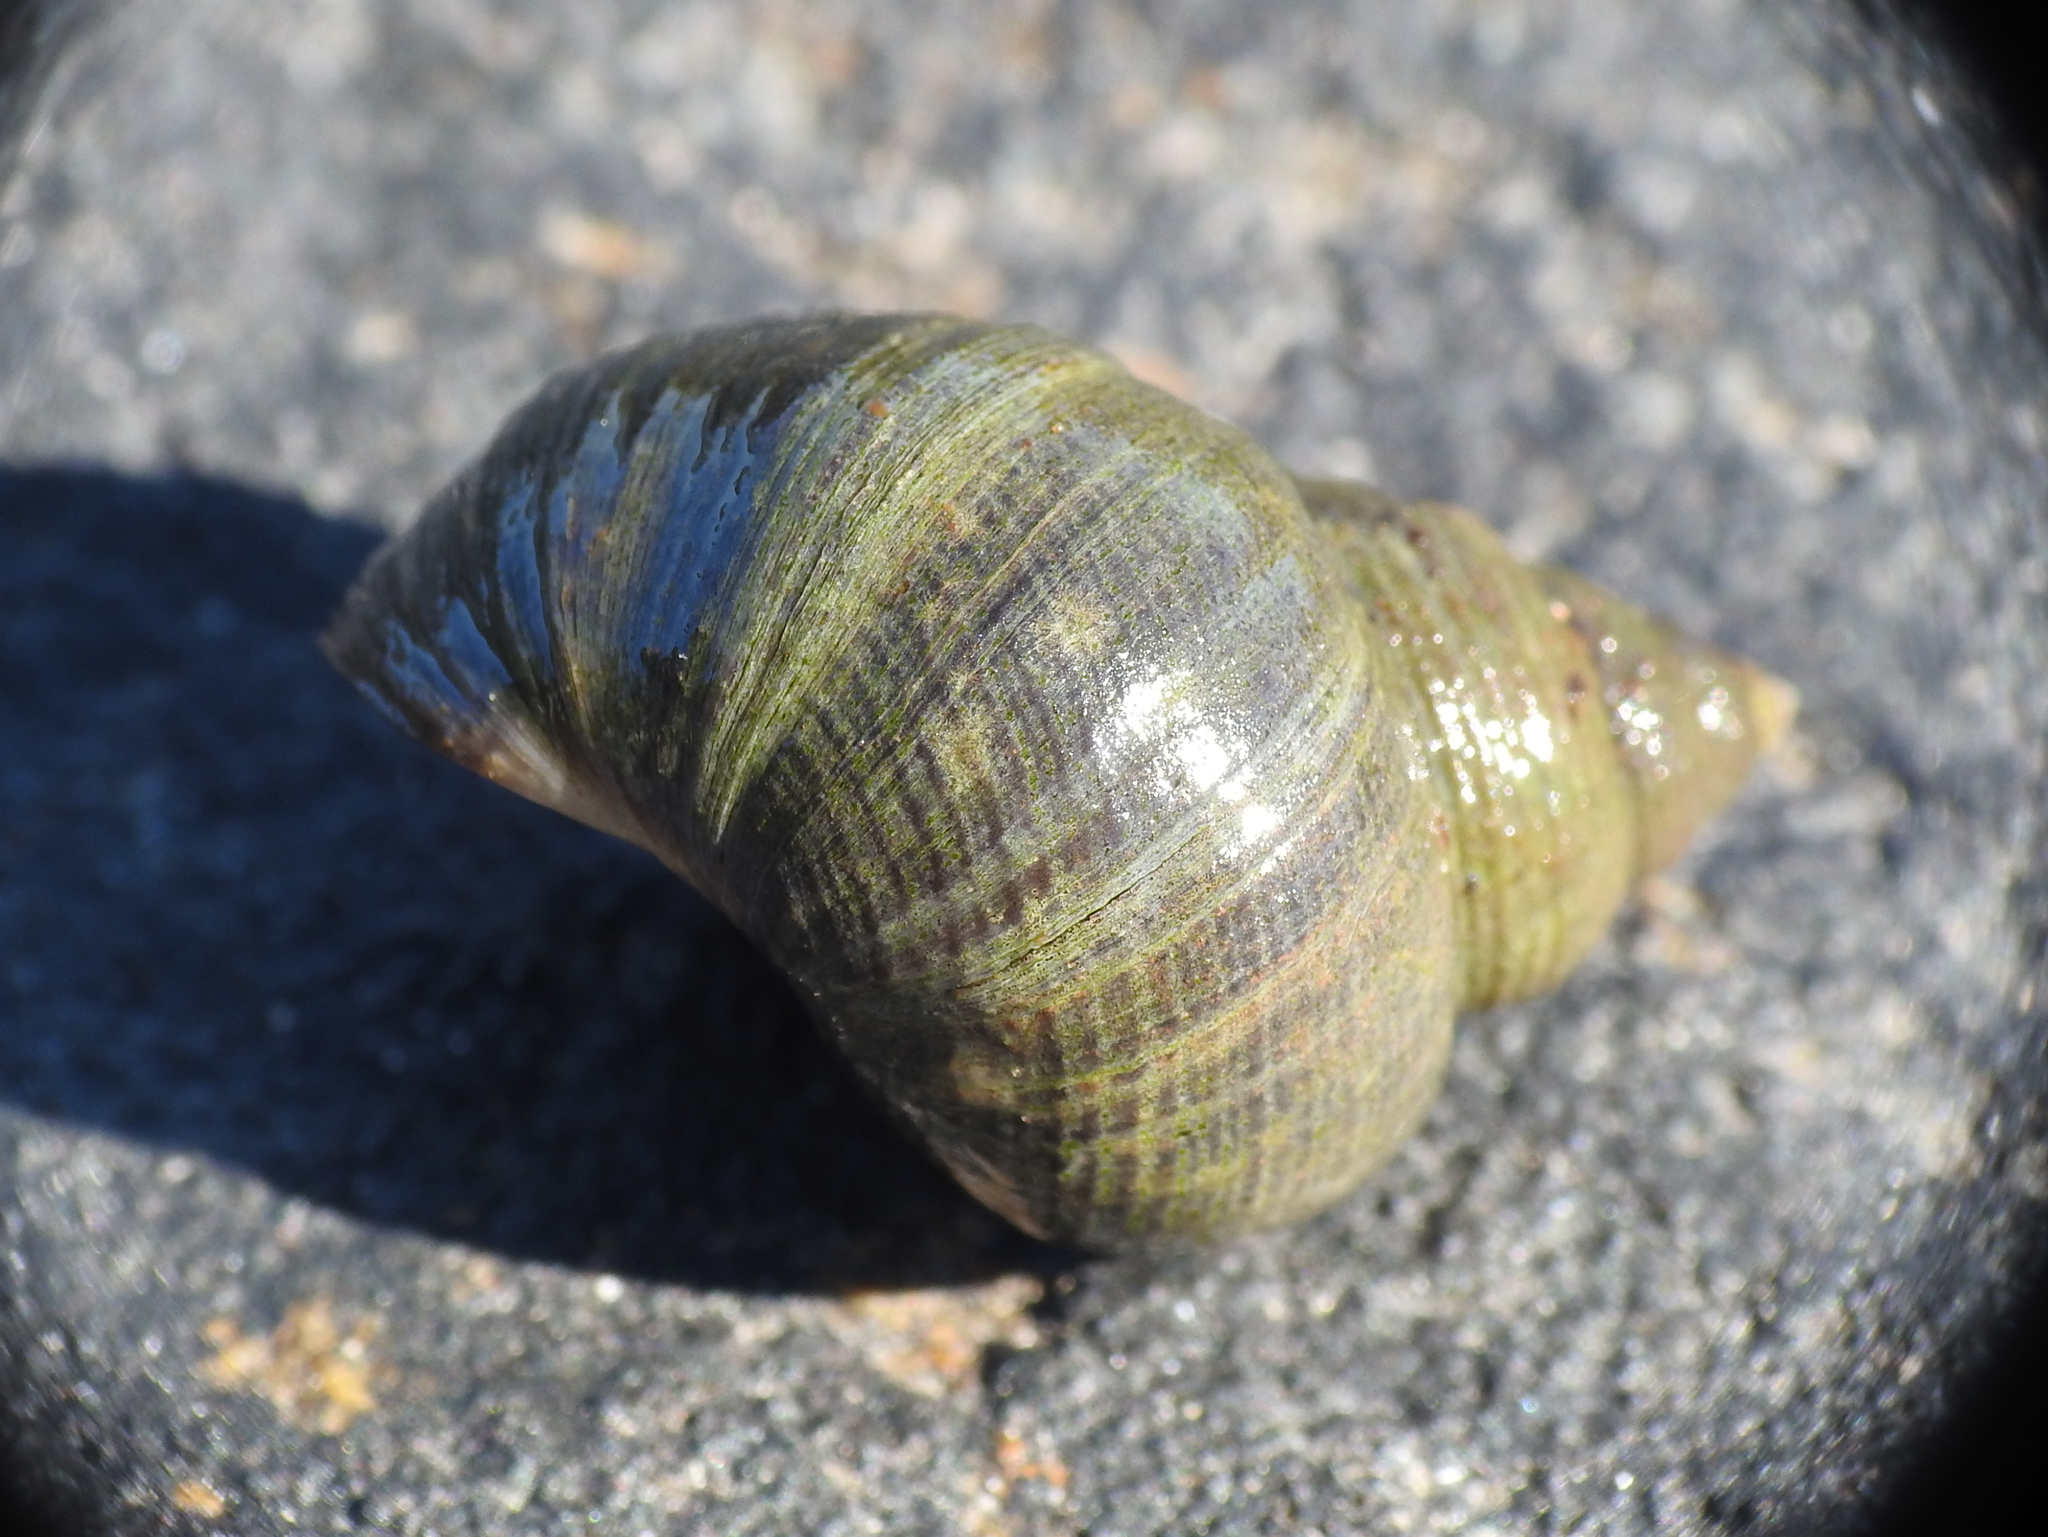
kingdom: Animalia
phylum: Mollusca
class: Gastropoda
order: Littorinimorpha
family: Littorinidae
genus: Littorina
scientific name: Littorina littorea
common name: Common periwinkle
